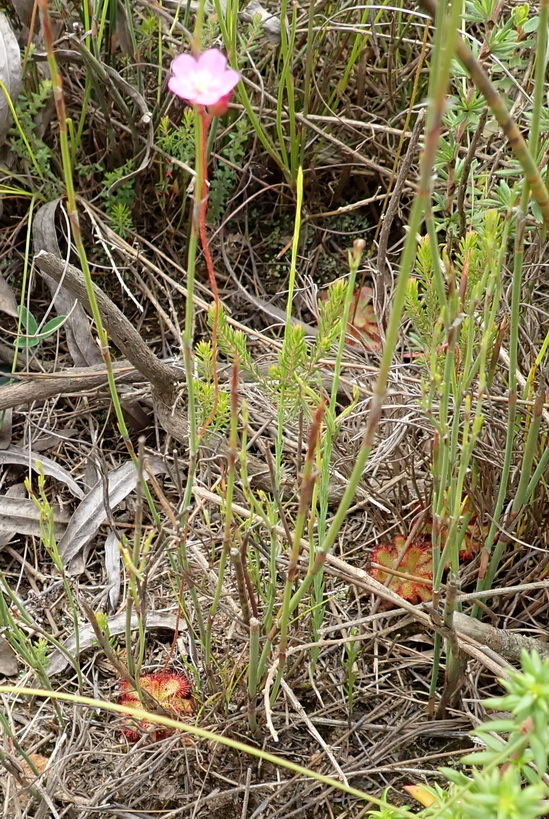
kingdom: Plantae
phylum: Tracheophyta
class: Magnoliopsida
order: Caryophyllales
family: Droseraceae
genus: Drosera
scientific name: Drosera aliciae
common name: Alice sundew
